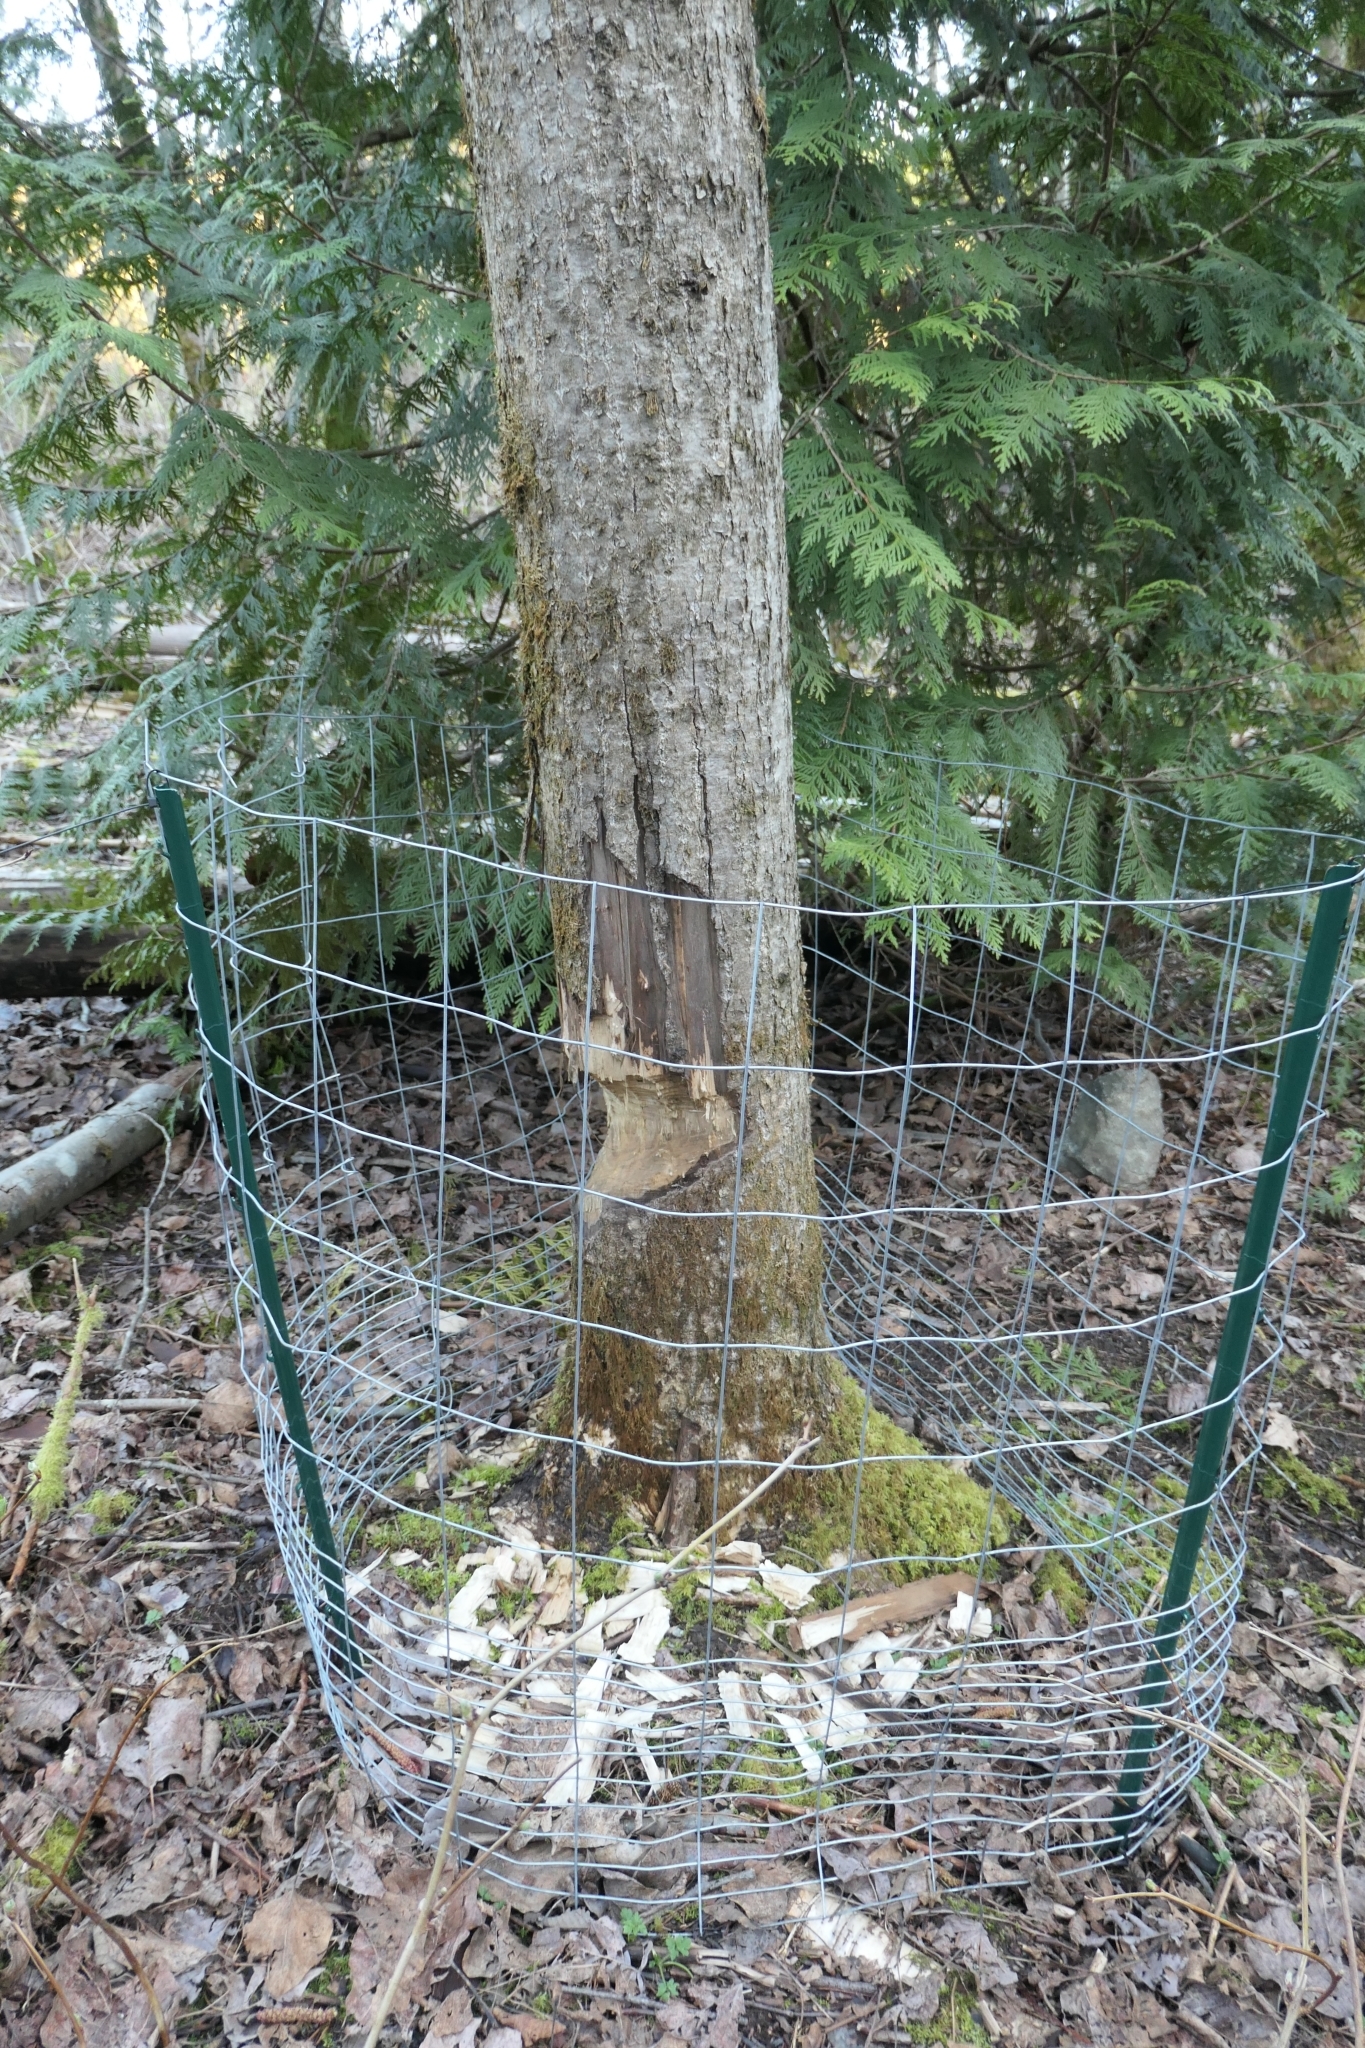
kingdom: Plantae
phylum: Tracheophyta
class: Magnoliopsida
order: Sapindales
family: Sapindaceae
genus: Acer
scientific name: Acer macrophyllum
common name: Oregon maple
